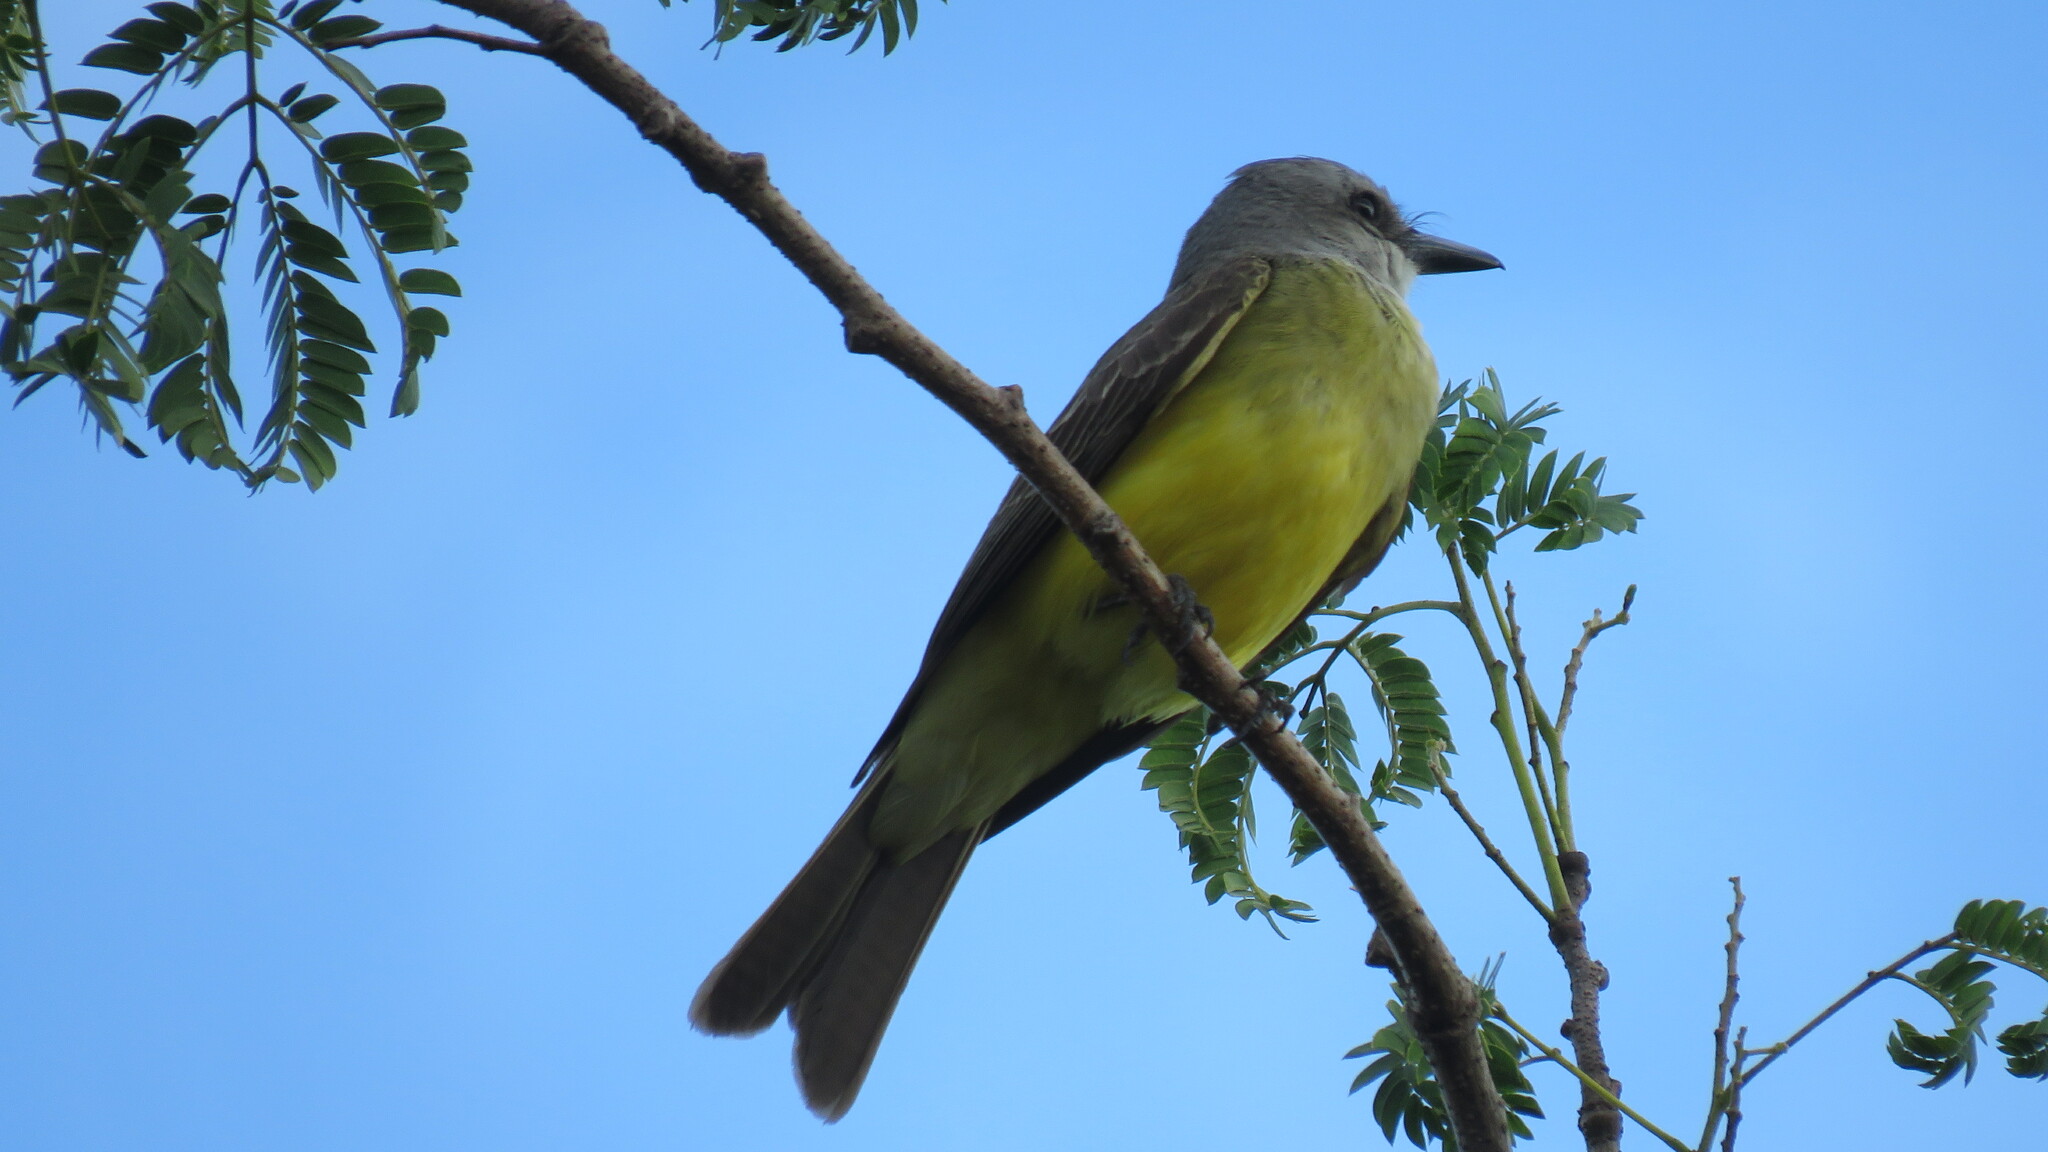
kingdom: Animalia
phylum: Chordata
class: Aves
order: Passeriformes
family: Tyrannidae
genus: Tyrannus
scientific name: Tyrannus melancholicus
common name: Tropical kingbird
